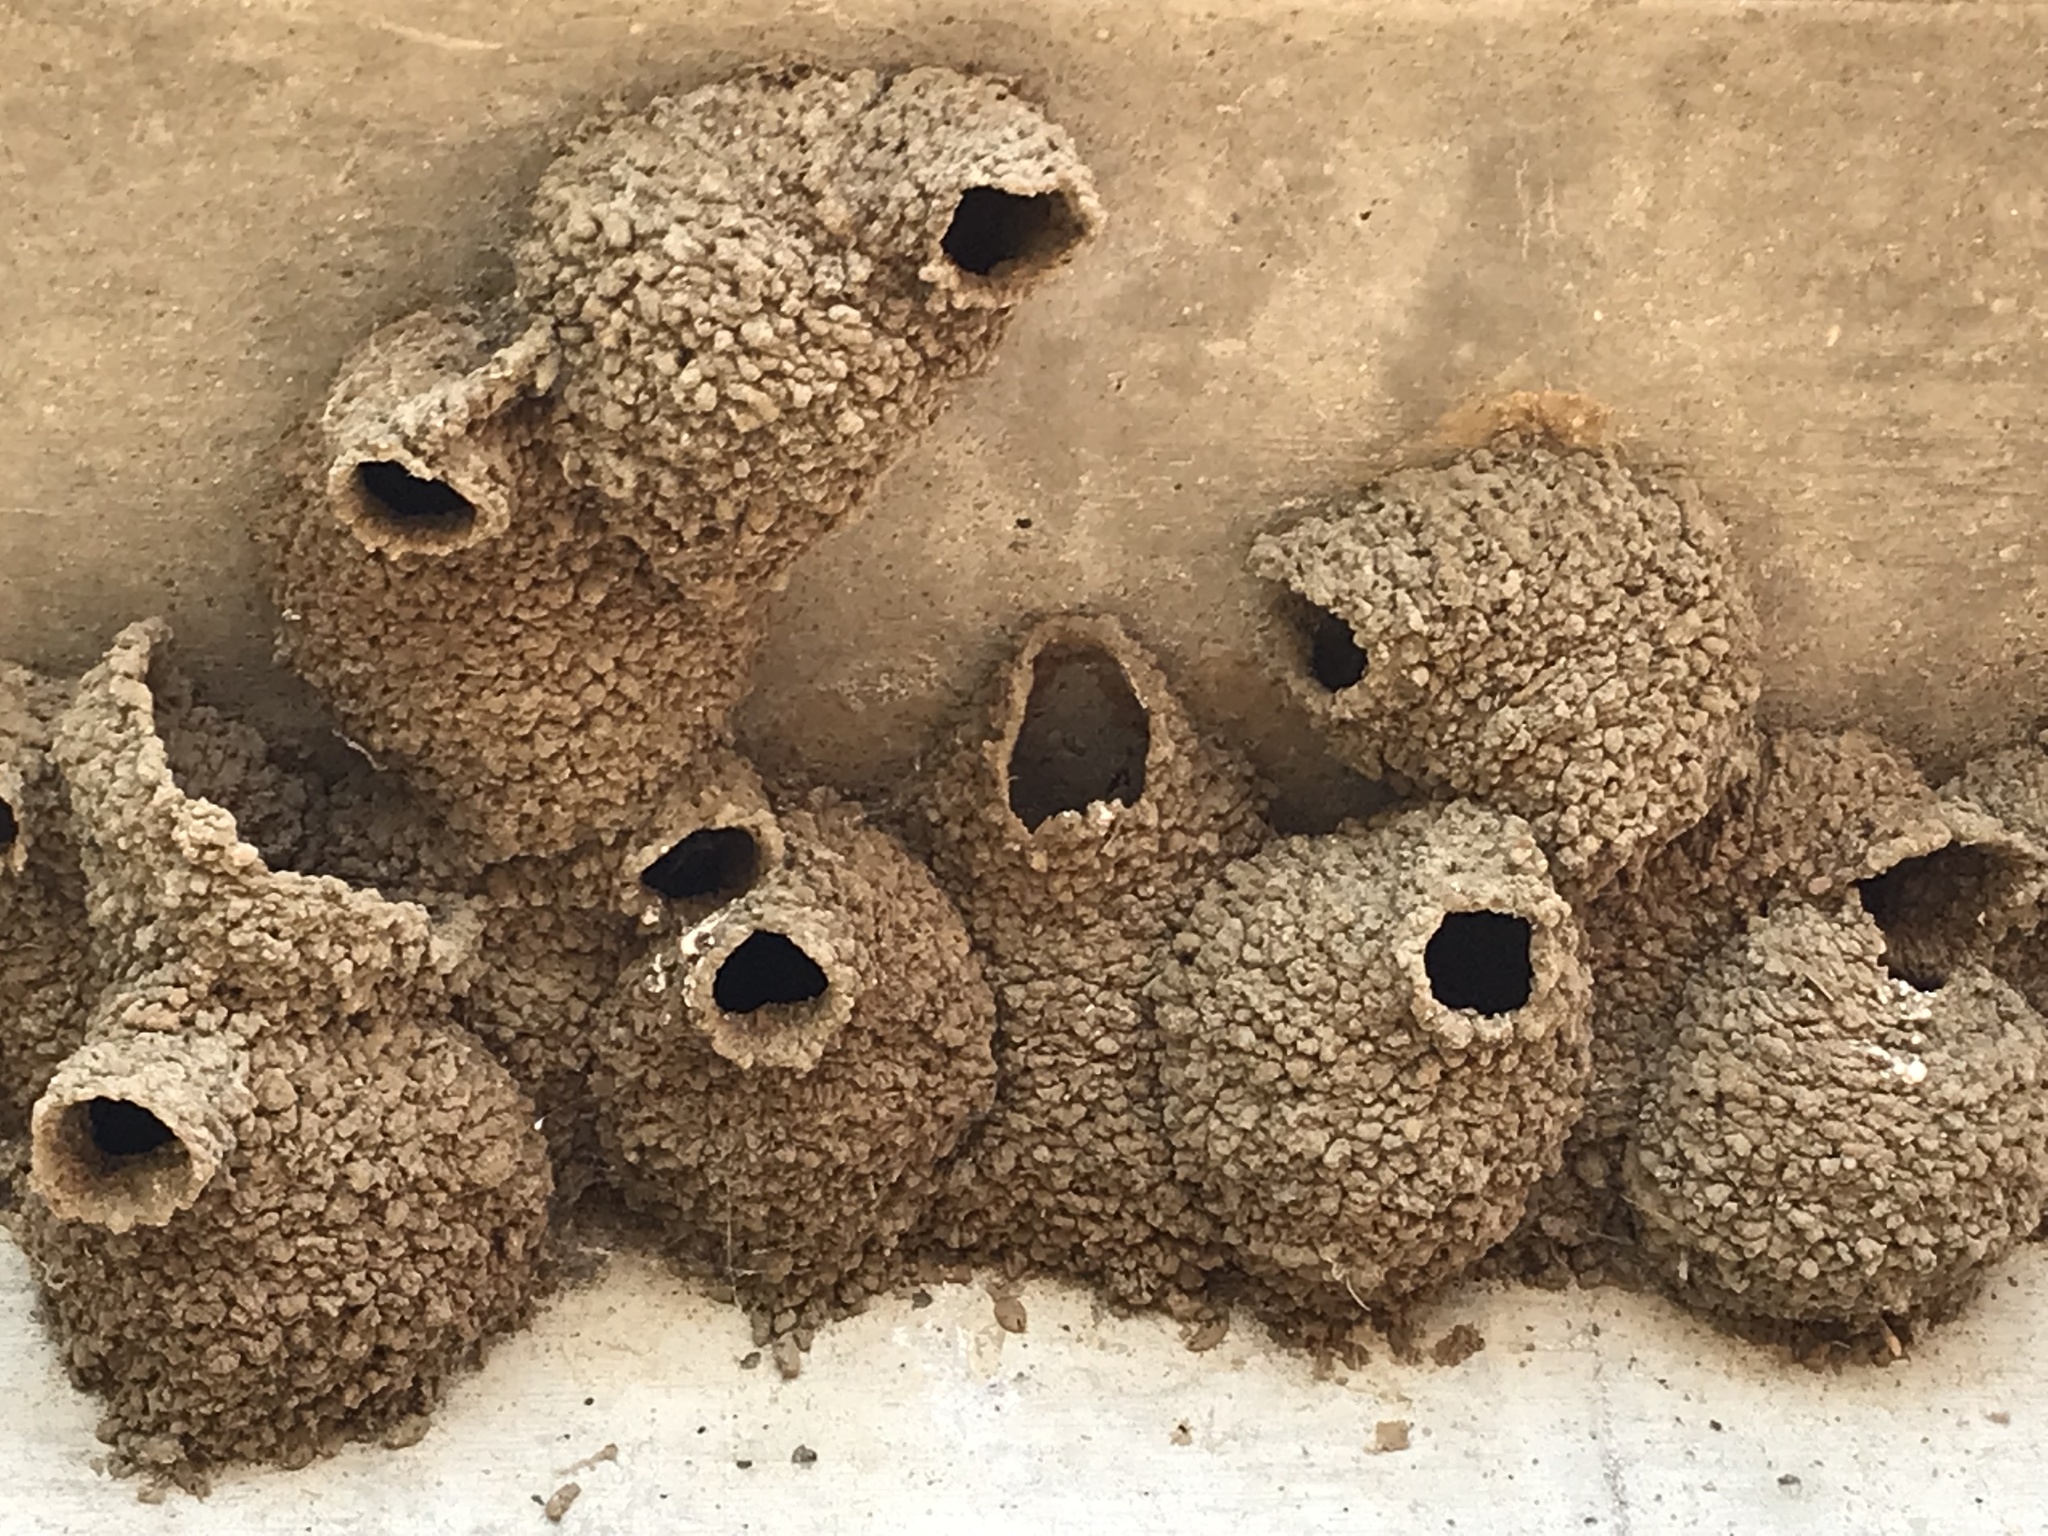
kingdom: Animalia
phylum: Chordata
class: Aves
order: Passeriformes
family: Hirundinidae
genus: Petrochelidon
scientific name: Petrochelidon pyrrhonota
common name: American cliff swallow
